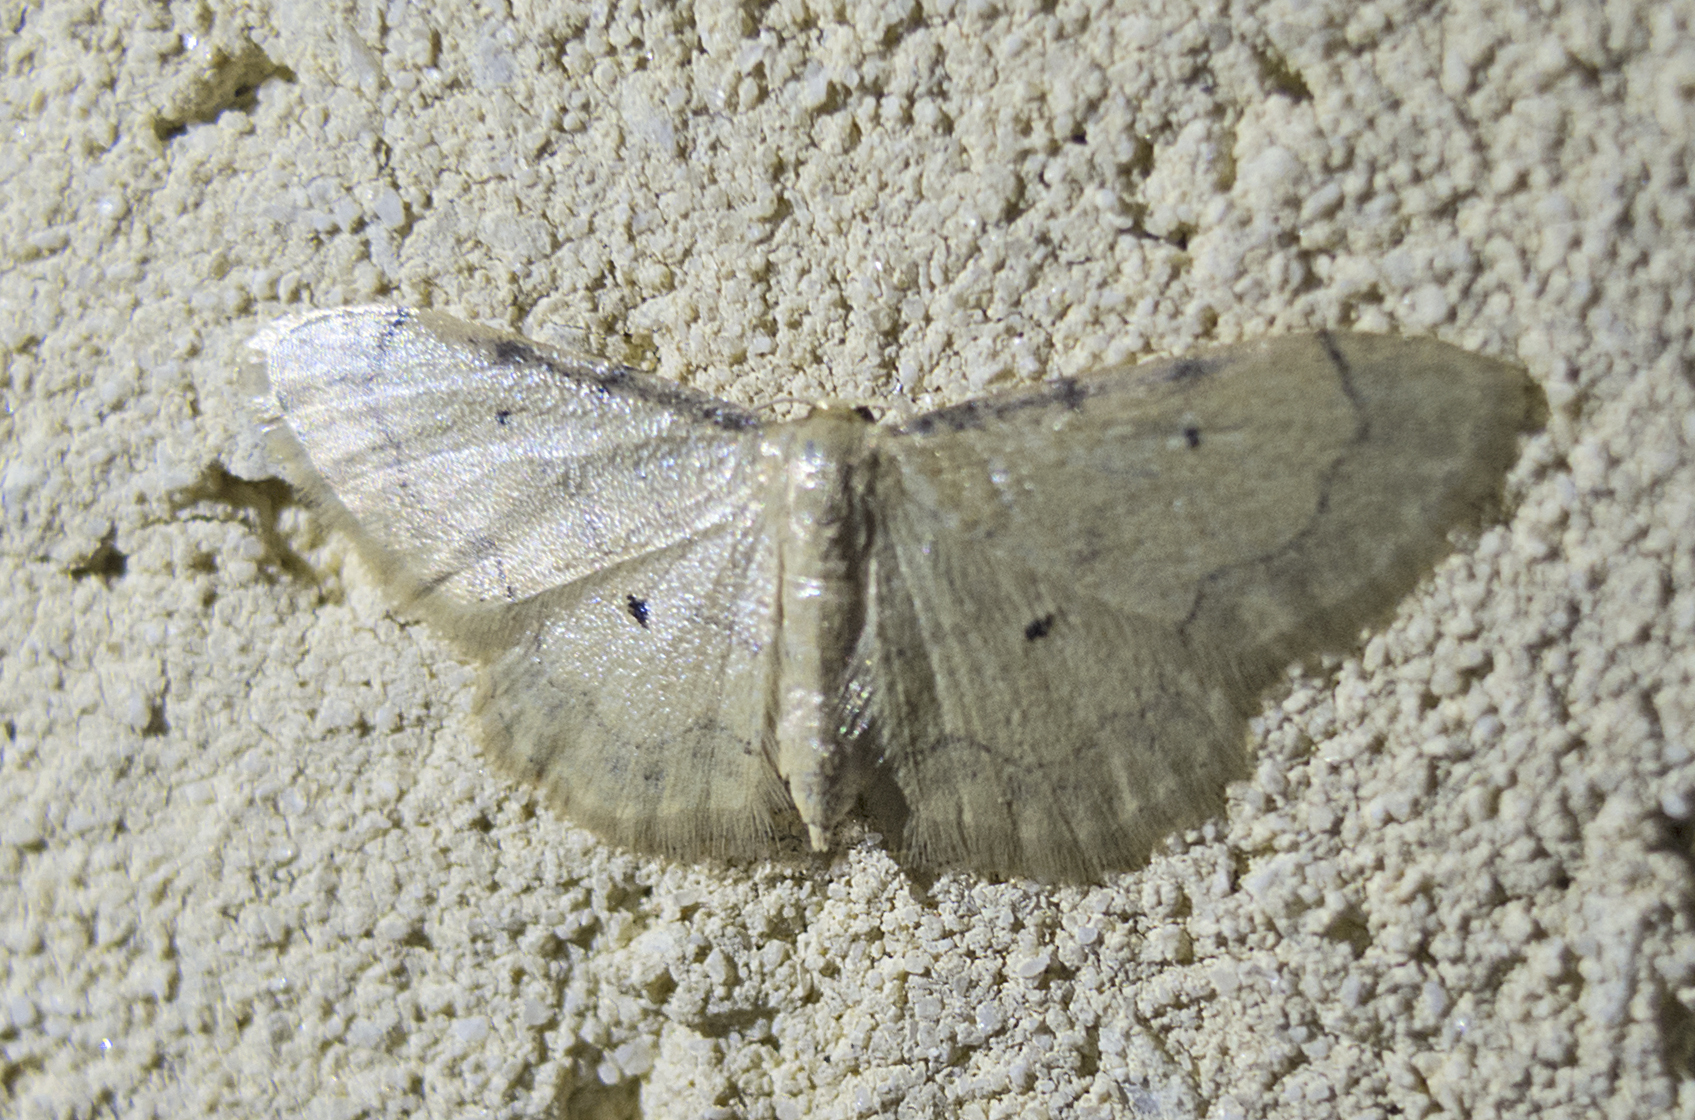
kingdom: Animalia
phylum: Arthropoda
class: Insecta
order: Lepidoptera
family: Geometridae
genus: Idaea
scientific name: Idaea politaria
